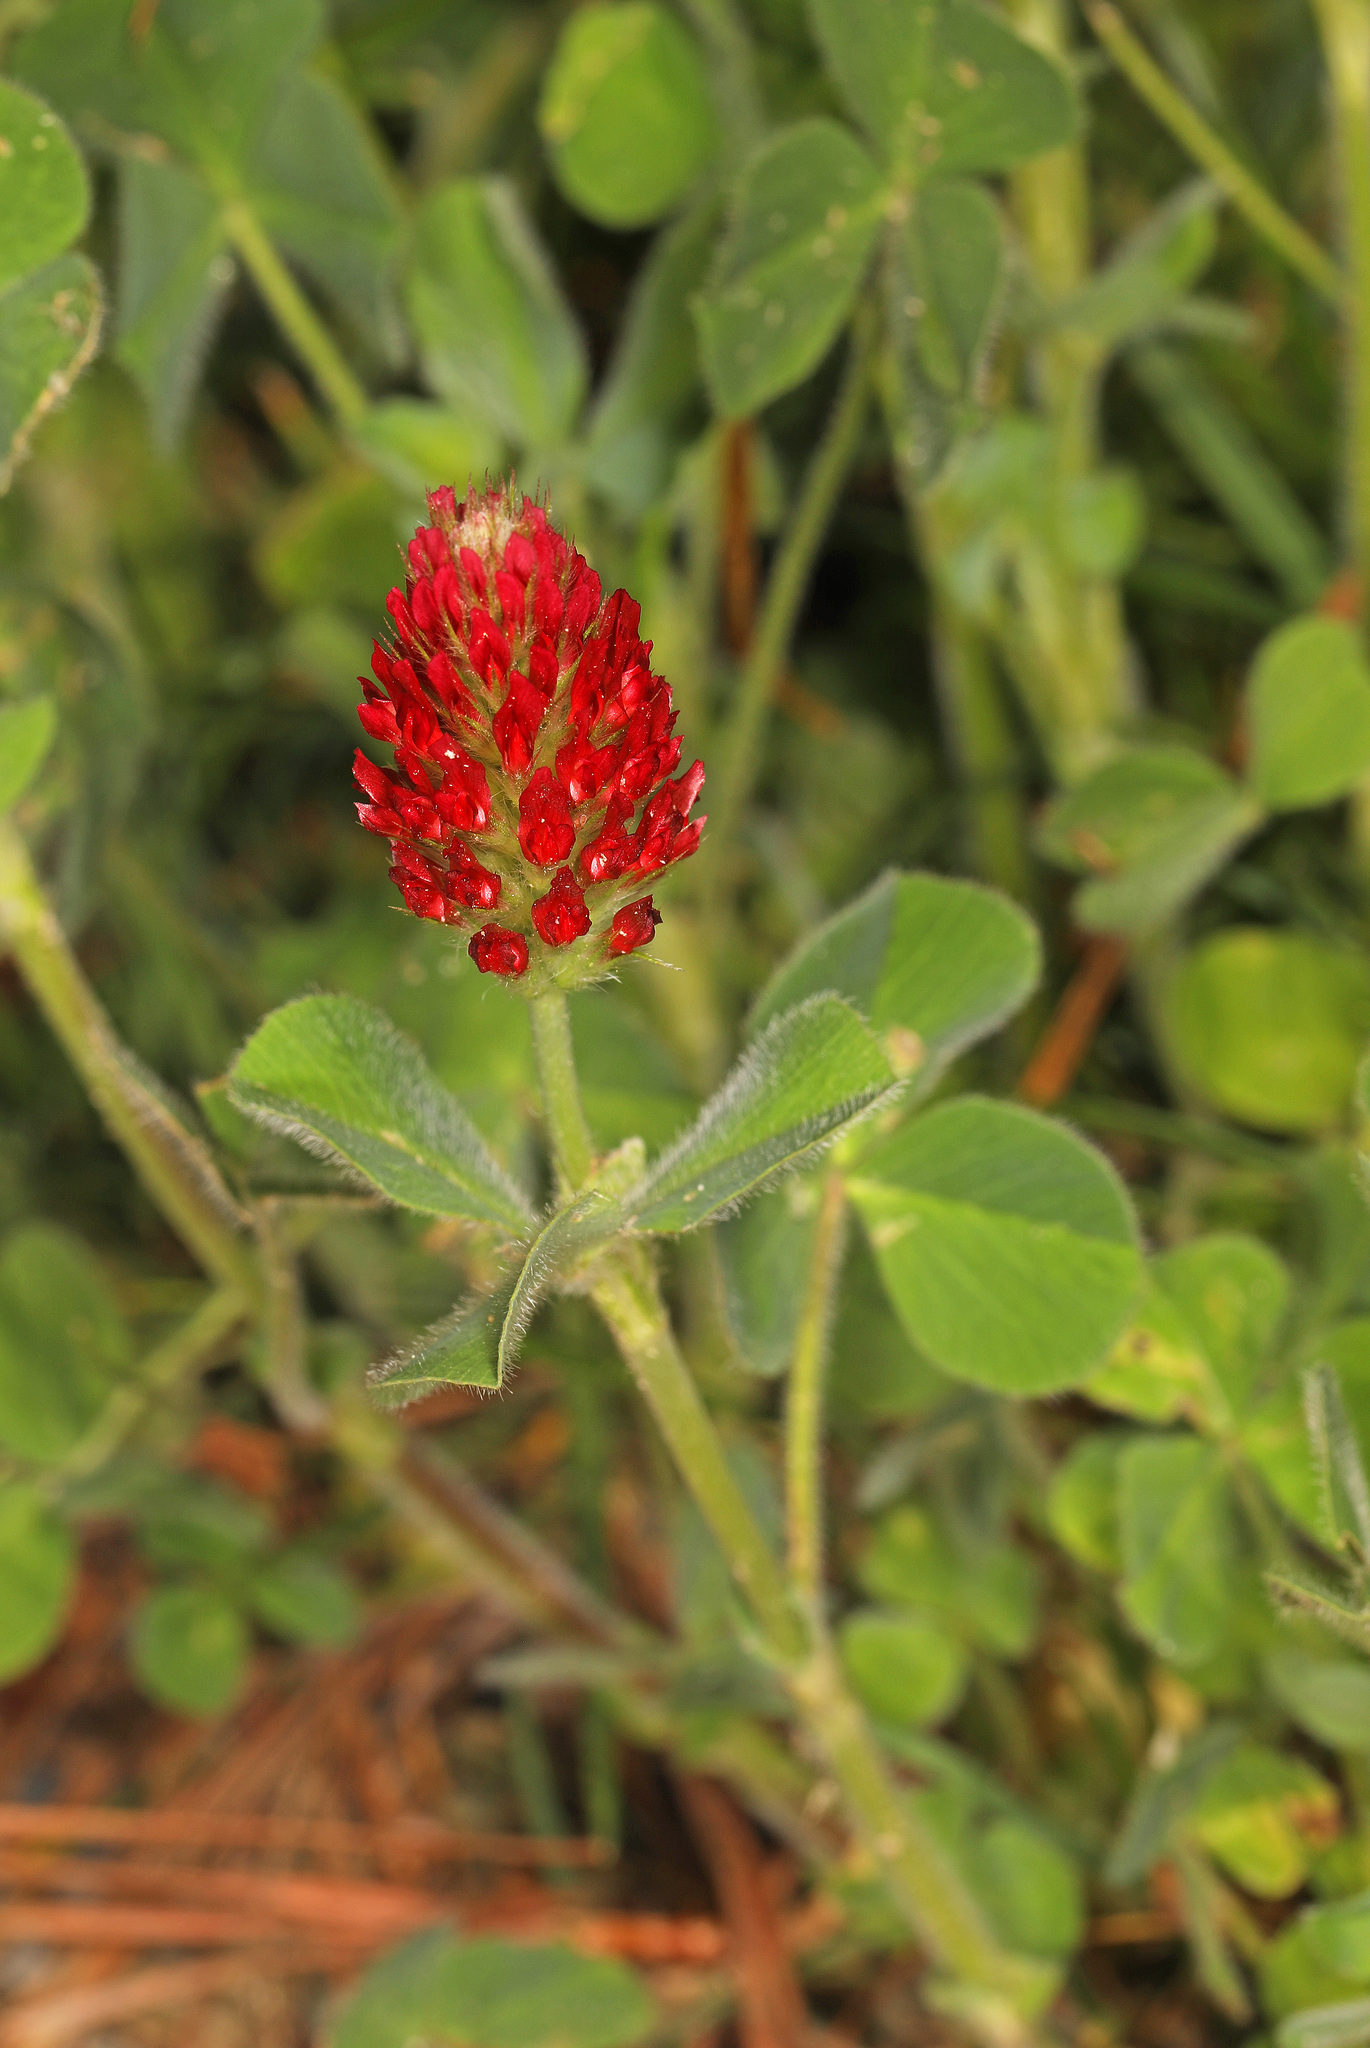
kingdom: Plantae
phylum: Tracheophyta
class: Magnoliopsida
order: Fabales
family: Fabaceae
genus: Trifolium
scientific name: Trifolium incarnatum
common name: Crimson clover
